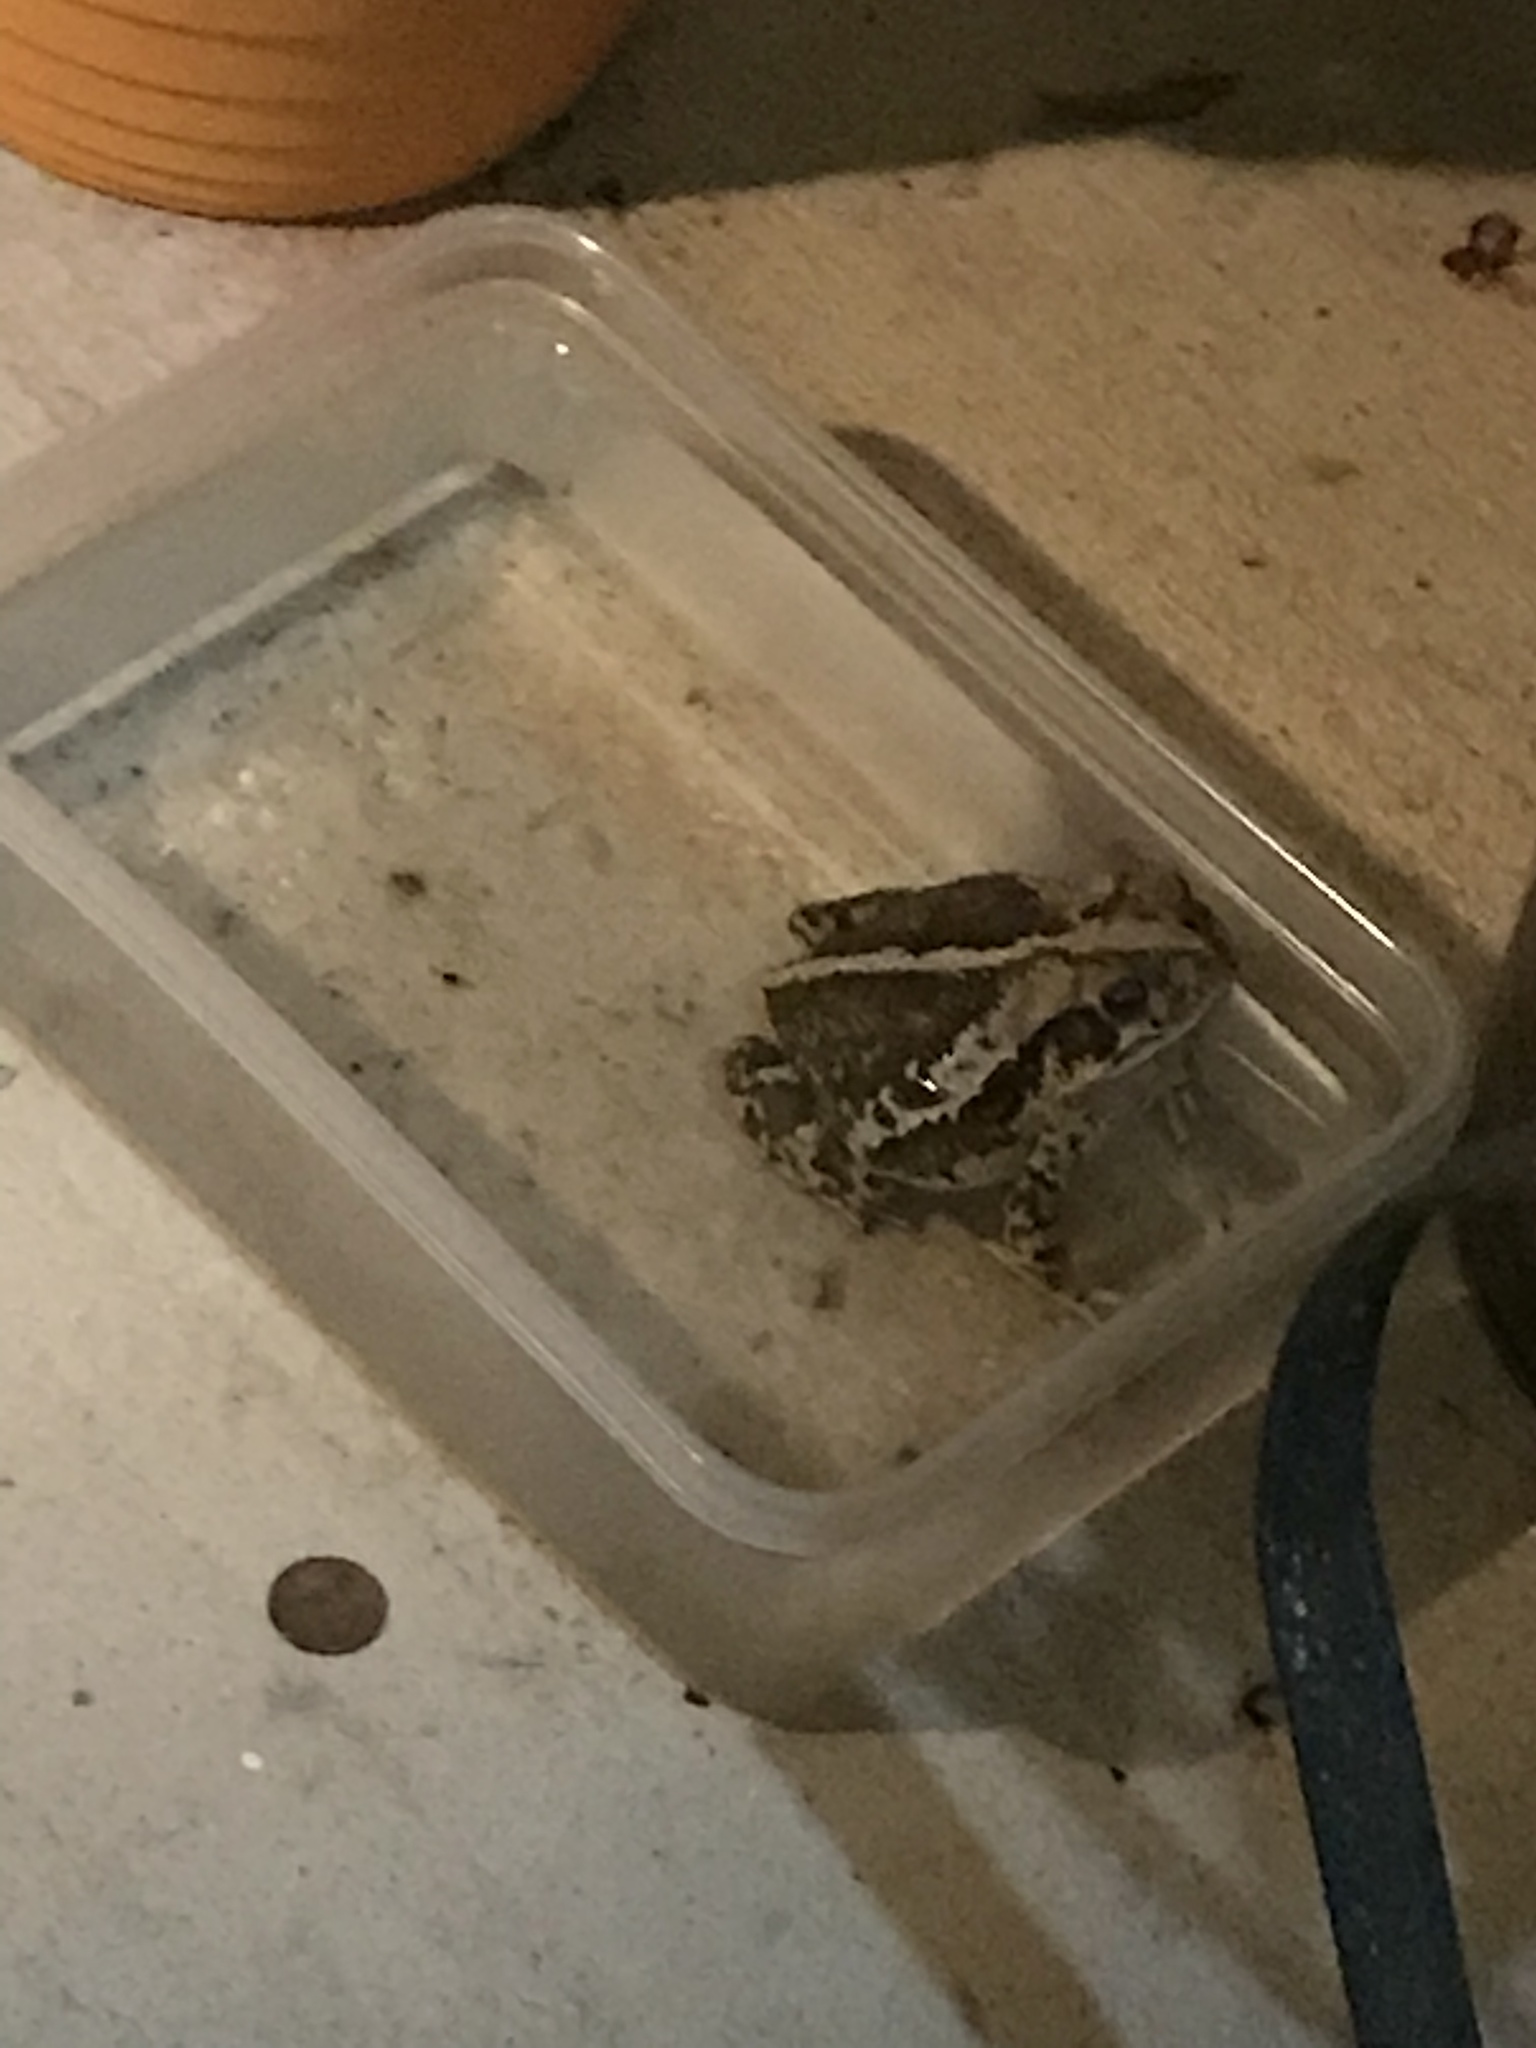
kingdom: Animalia
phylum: Chordata
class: Amphibia
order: Anura
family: Bufonidae
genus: Incilius
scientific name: Incilius nebulifer
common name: Gulf coast toad
